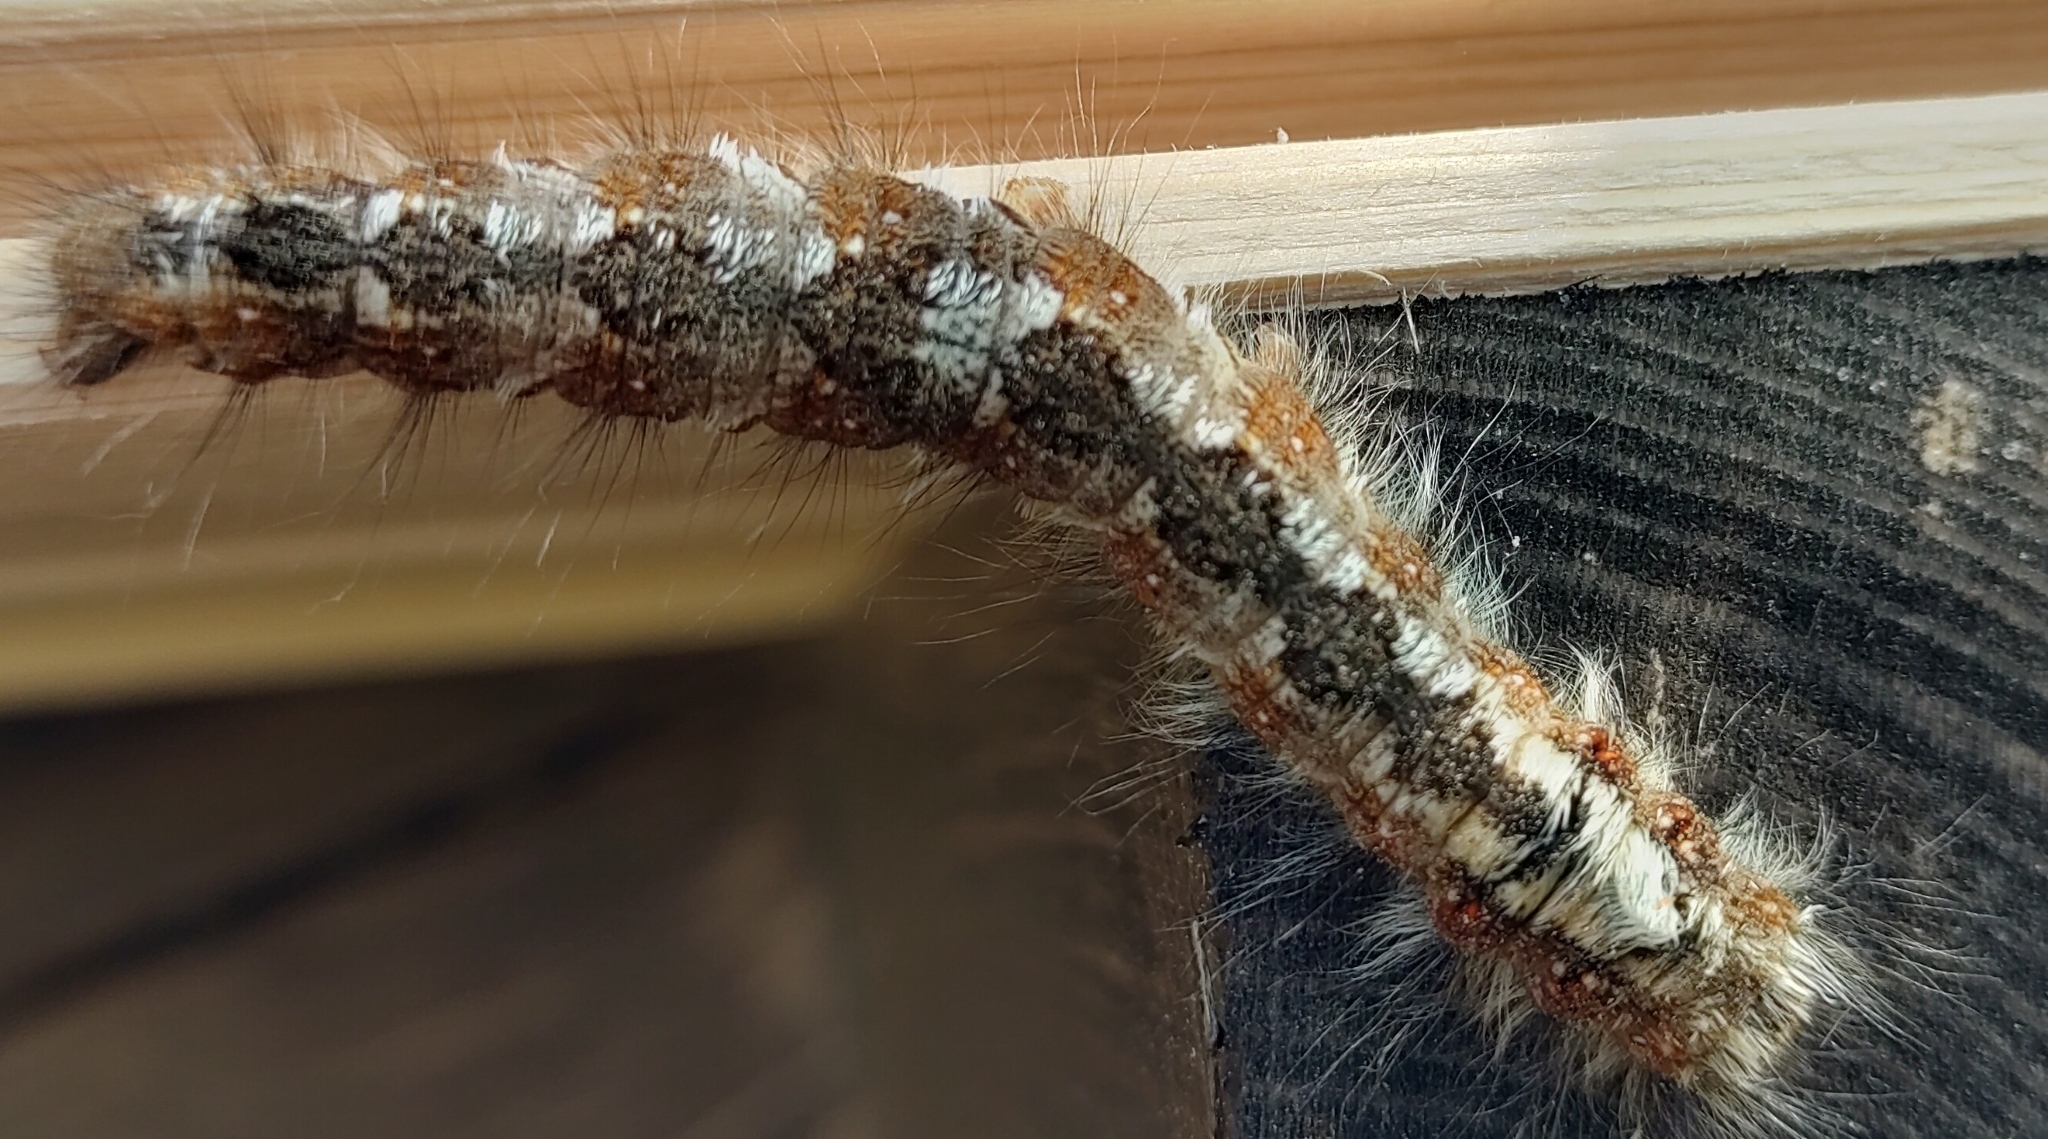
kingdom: Animalia
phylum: Arthropoda
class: Insecta
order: Lepidoptera
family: Lasiocampidae
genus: Dendrolimus
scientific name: Dendrolimus pini
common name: Pine-tree lappet
